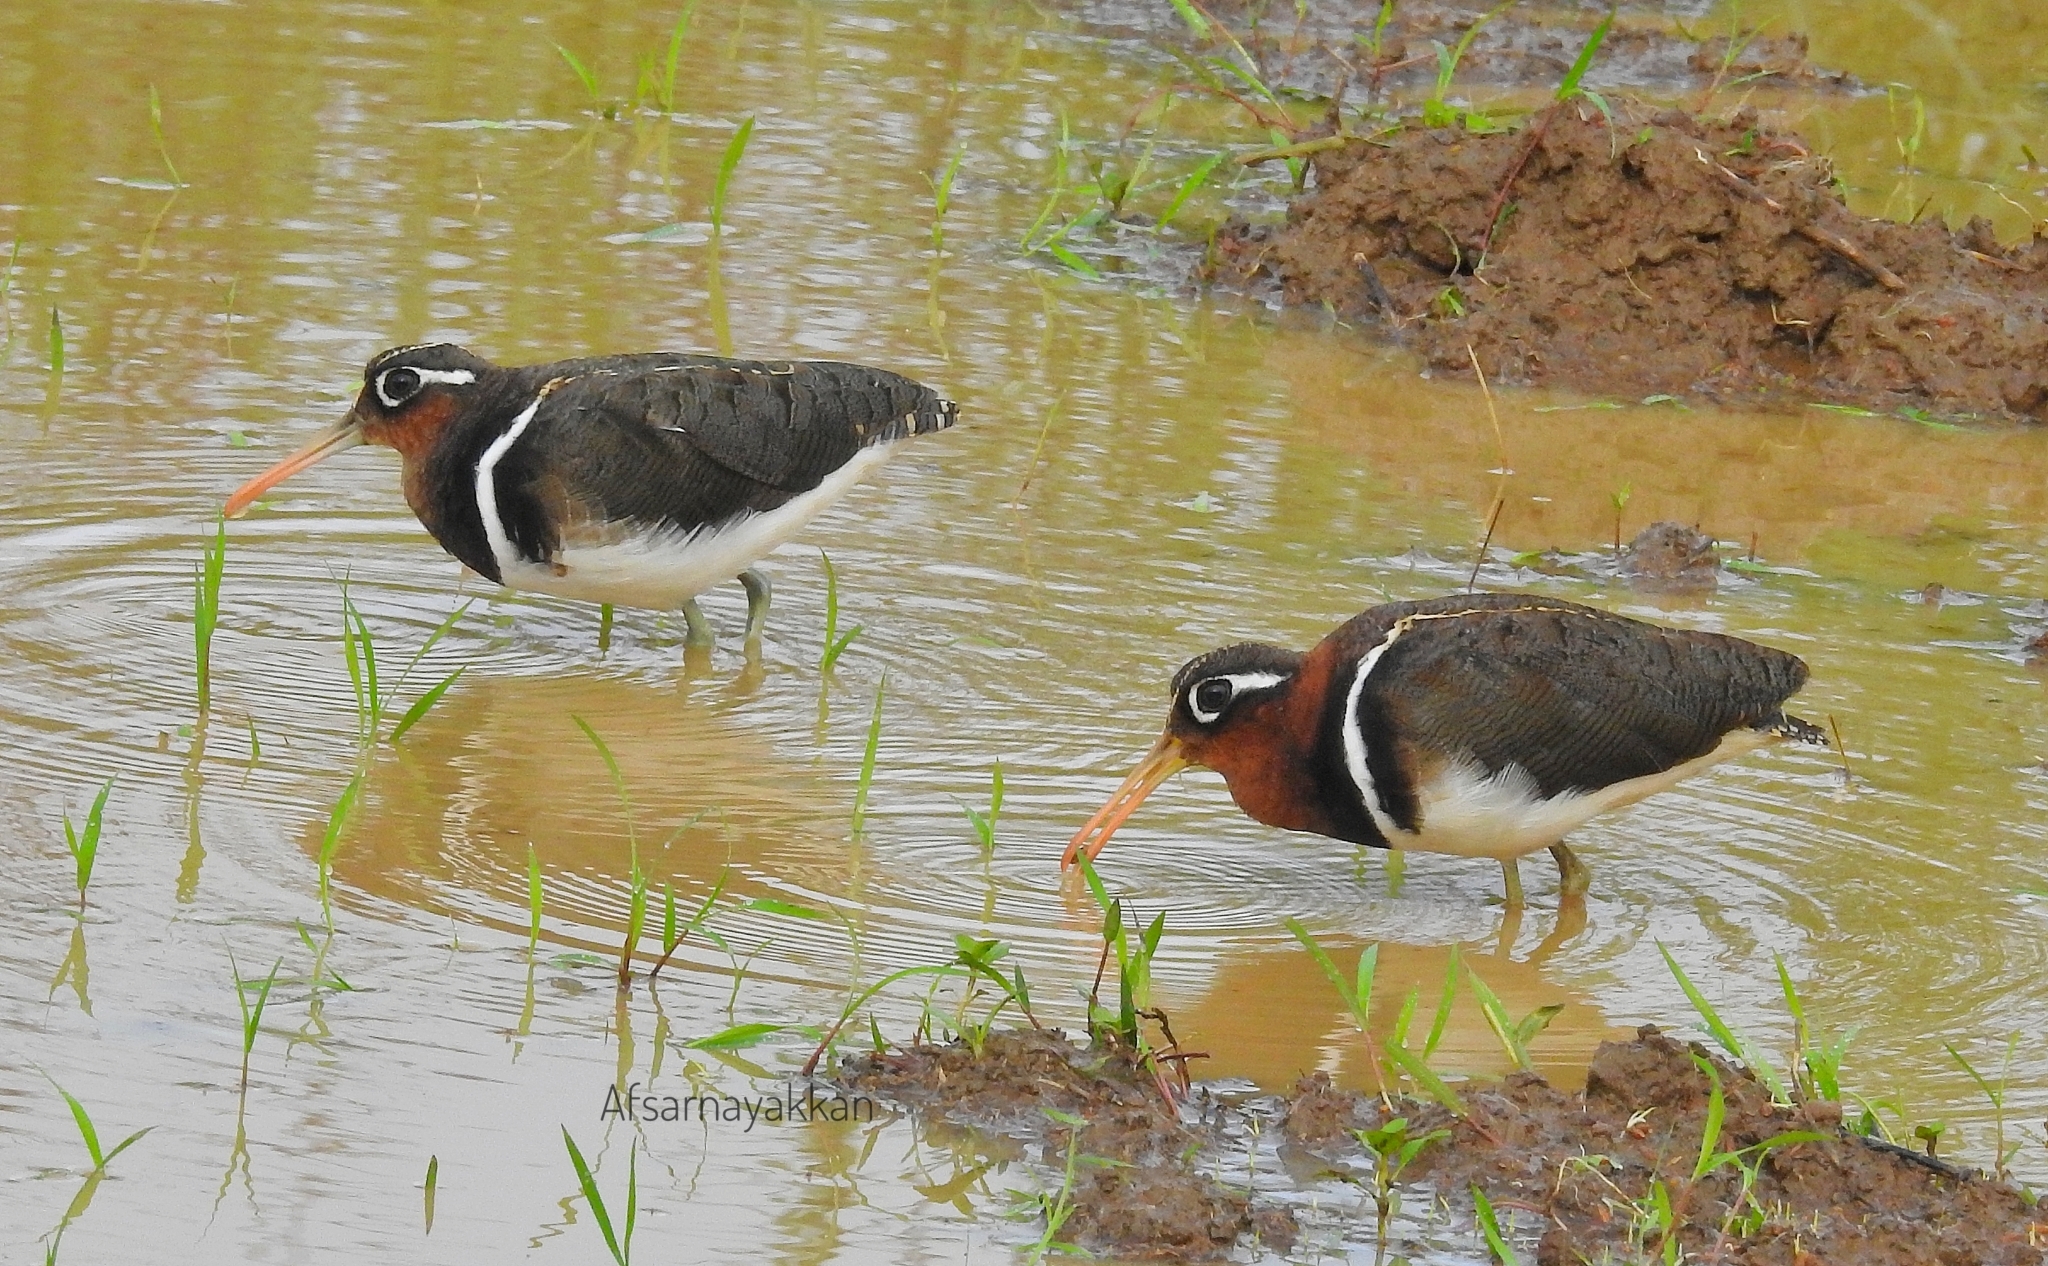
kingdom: Animalia
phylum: Chordata
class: Aves
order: Charadriiformes
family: Rostratulidae
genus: Rostratula
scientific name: Rostratula benghalensis
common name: Greater painted-snipe
